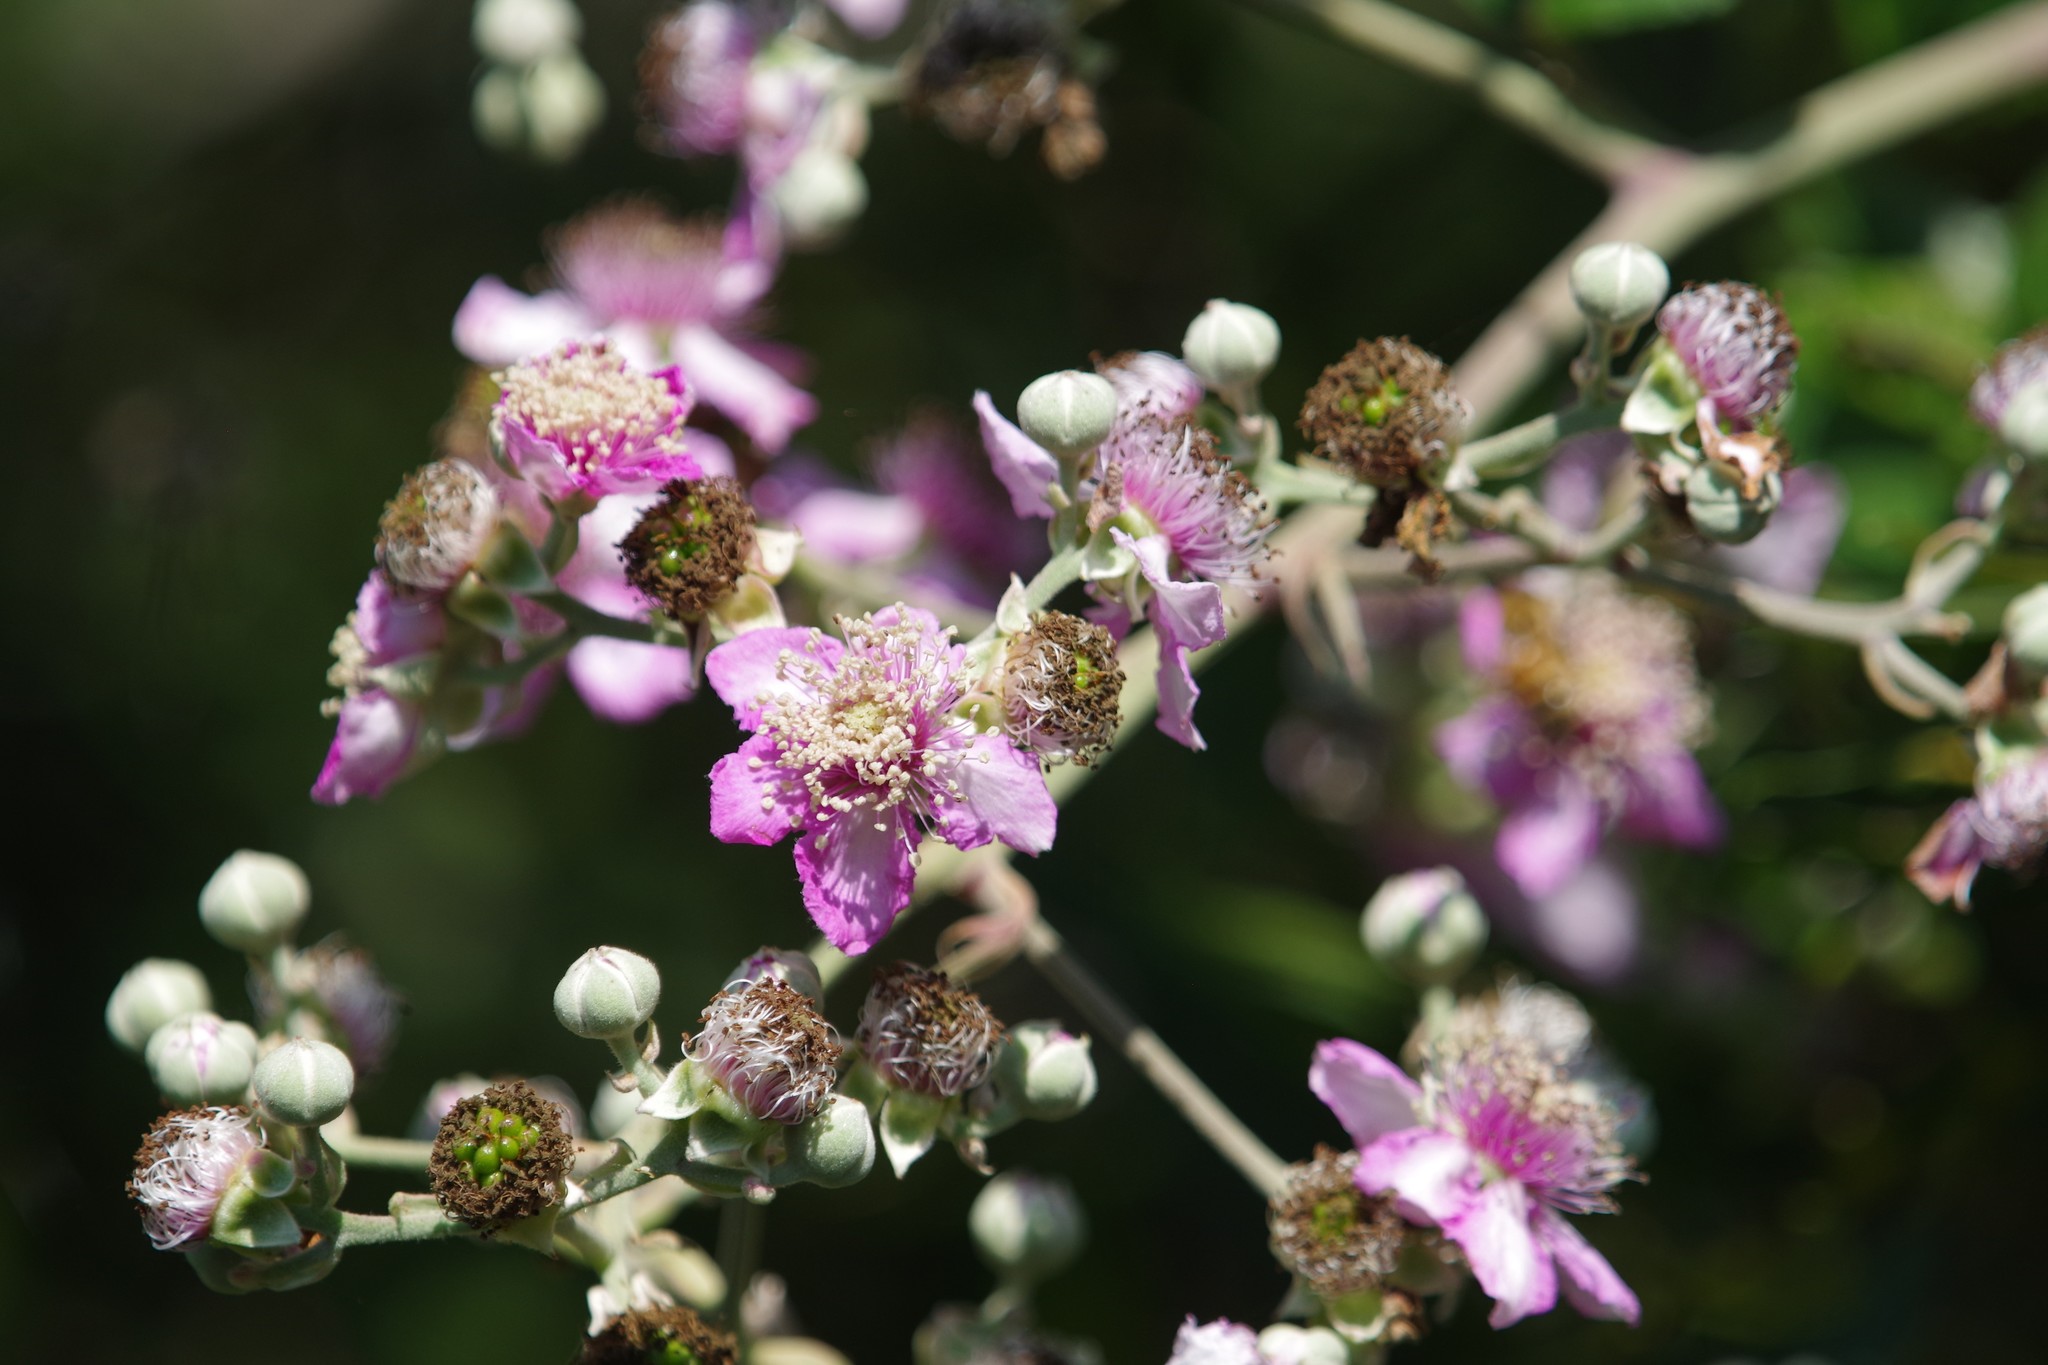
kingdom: Plantae
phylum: Tracheophyta
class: Magnoliopsida
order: Rosales
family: Rosaceae
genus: Rubus
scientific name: Rubus ulmifolius
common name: Elmleaf blackberry
